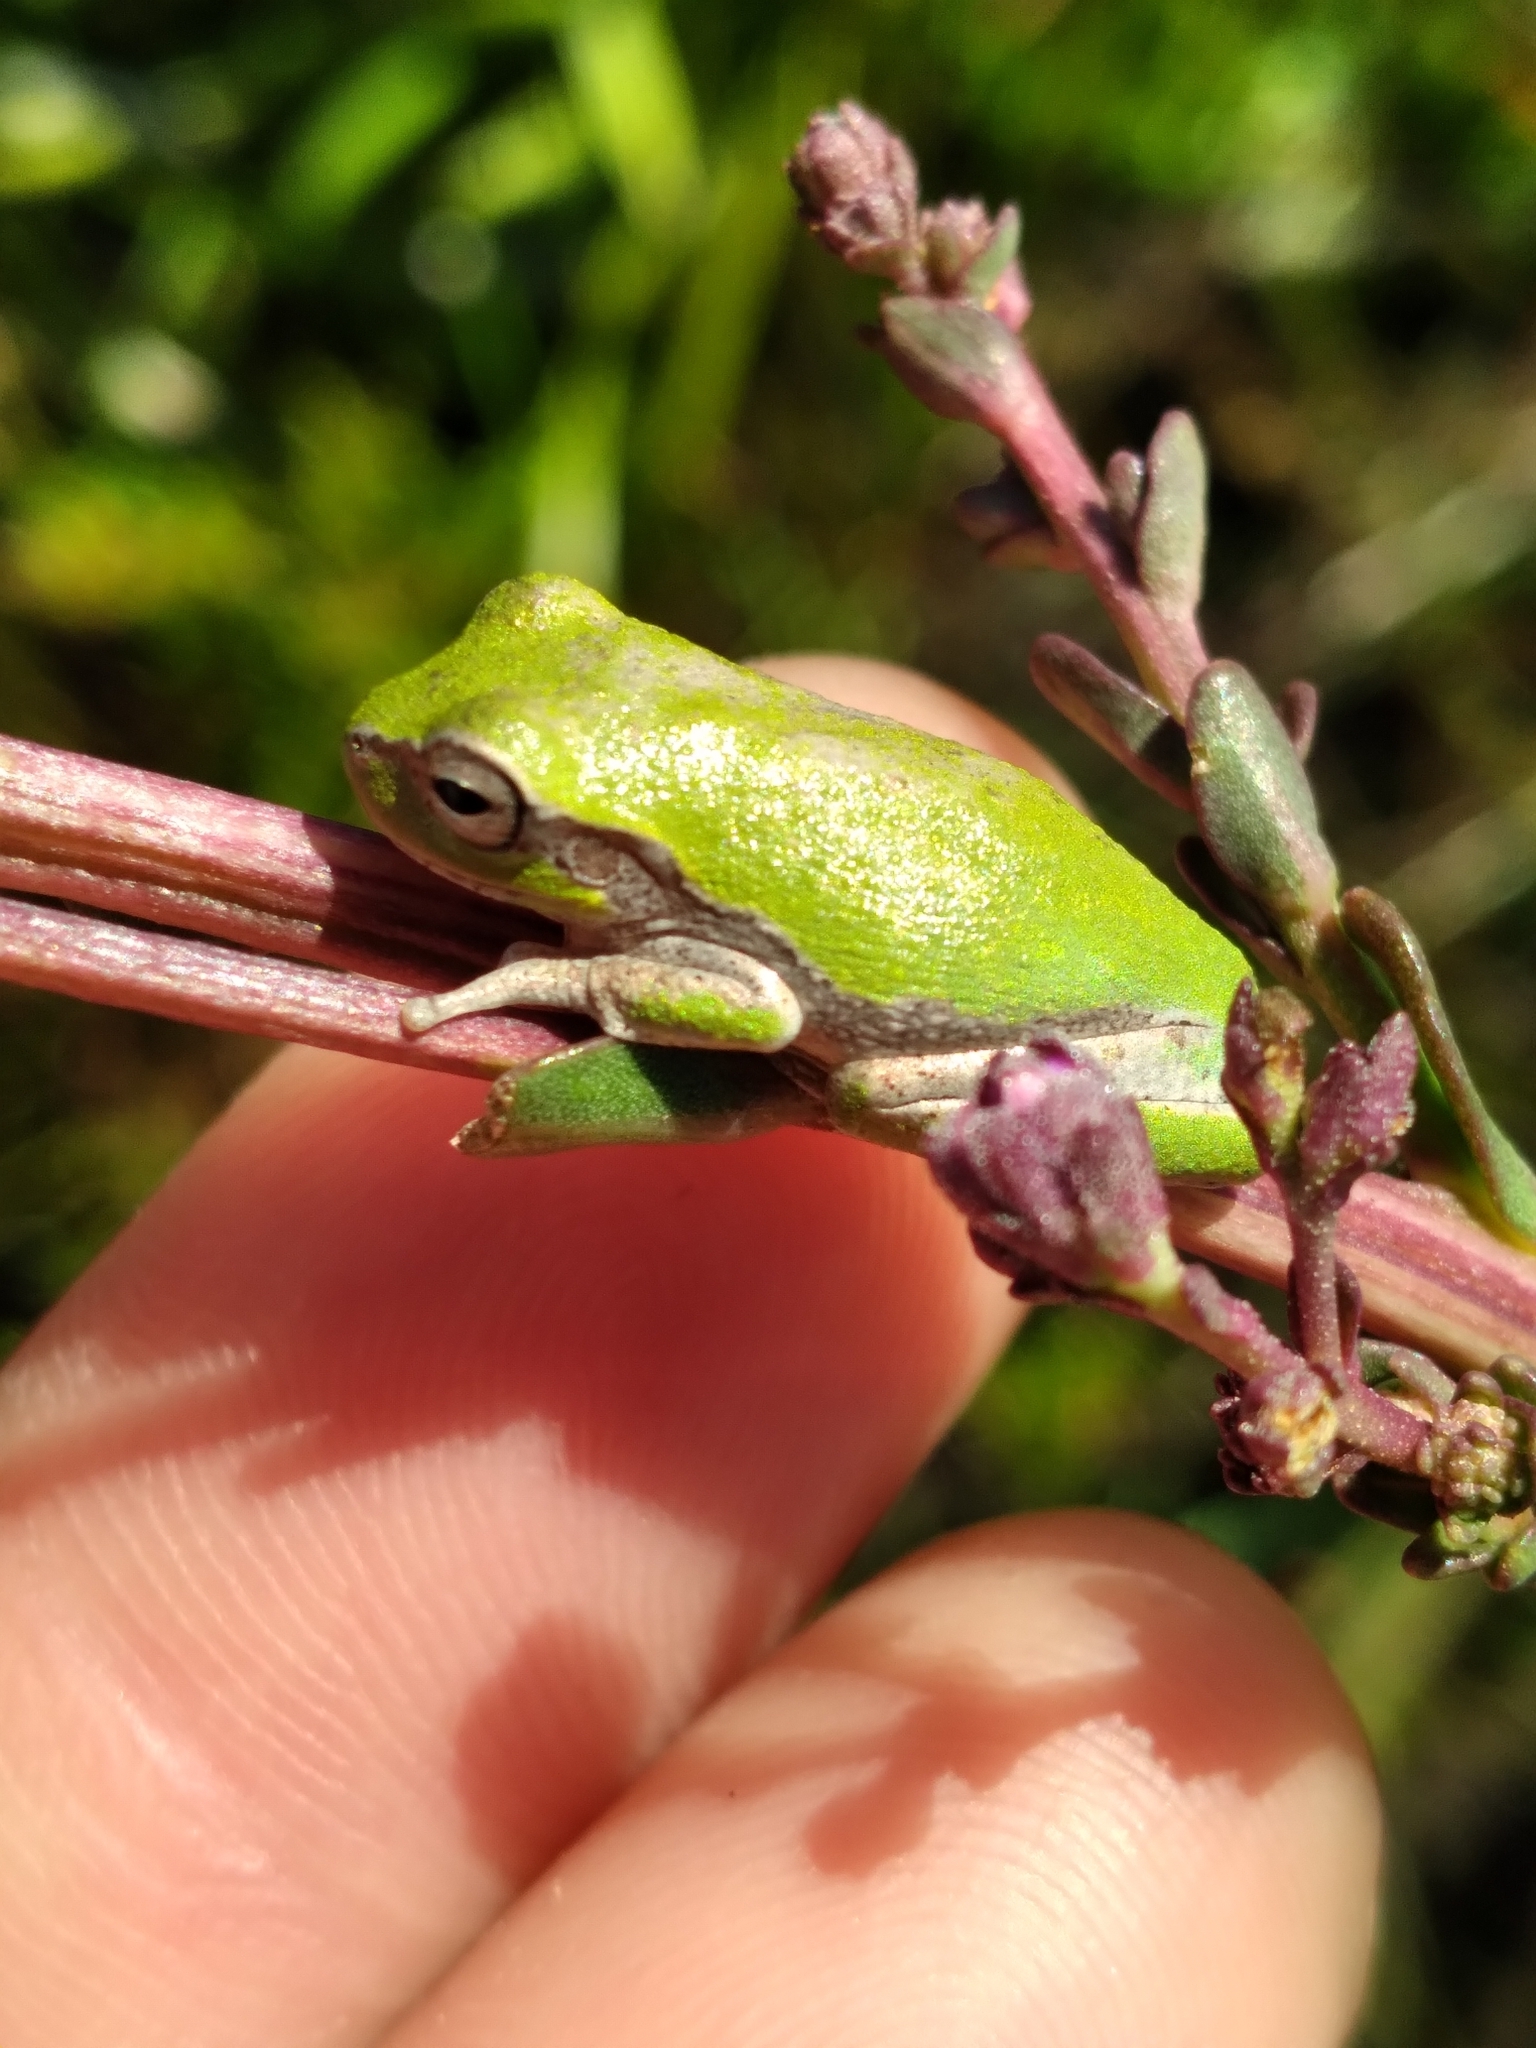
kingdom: Animalia
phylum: Chordata
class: Amphibia
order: Anura
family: Hylidae
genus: Hyla
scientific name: Hyla femoralis
